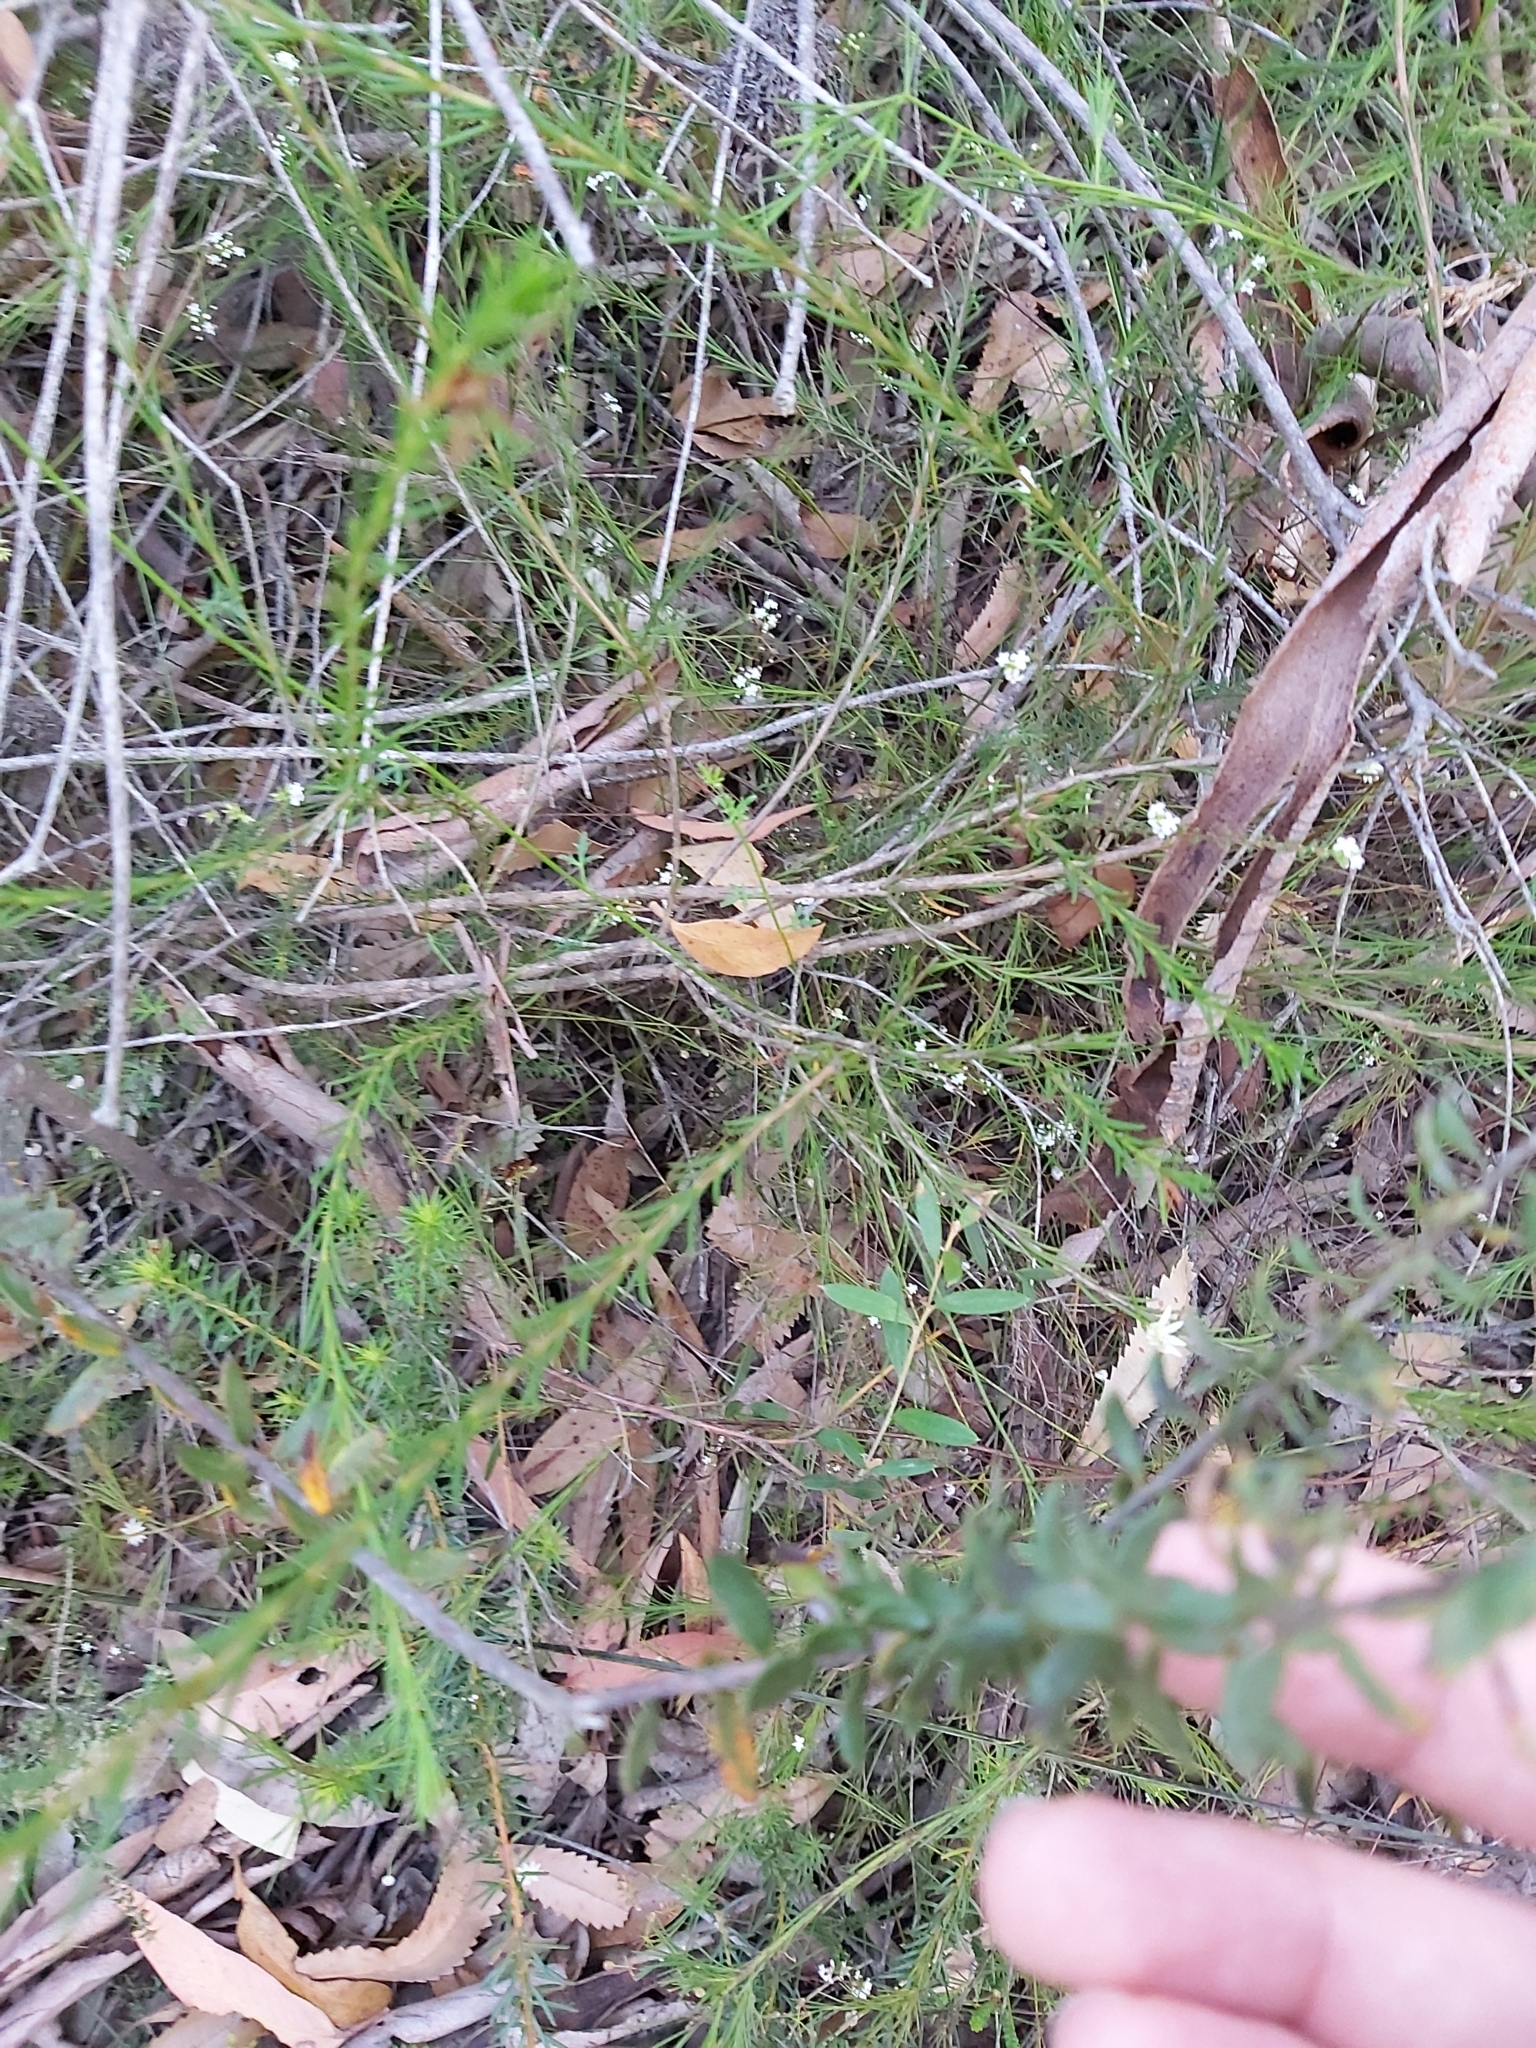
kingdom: Plantae
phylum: Tracheophyta
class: Magnoliopsida
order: Lamiales
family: Lamiaceae
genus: Hemigenia
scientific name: Hemigenia purpurea
